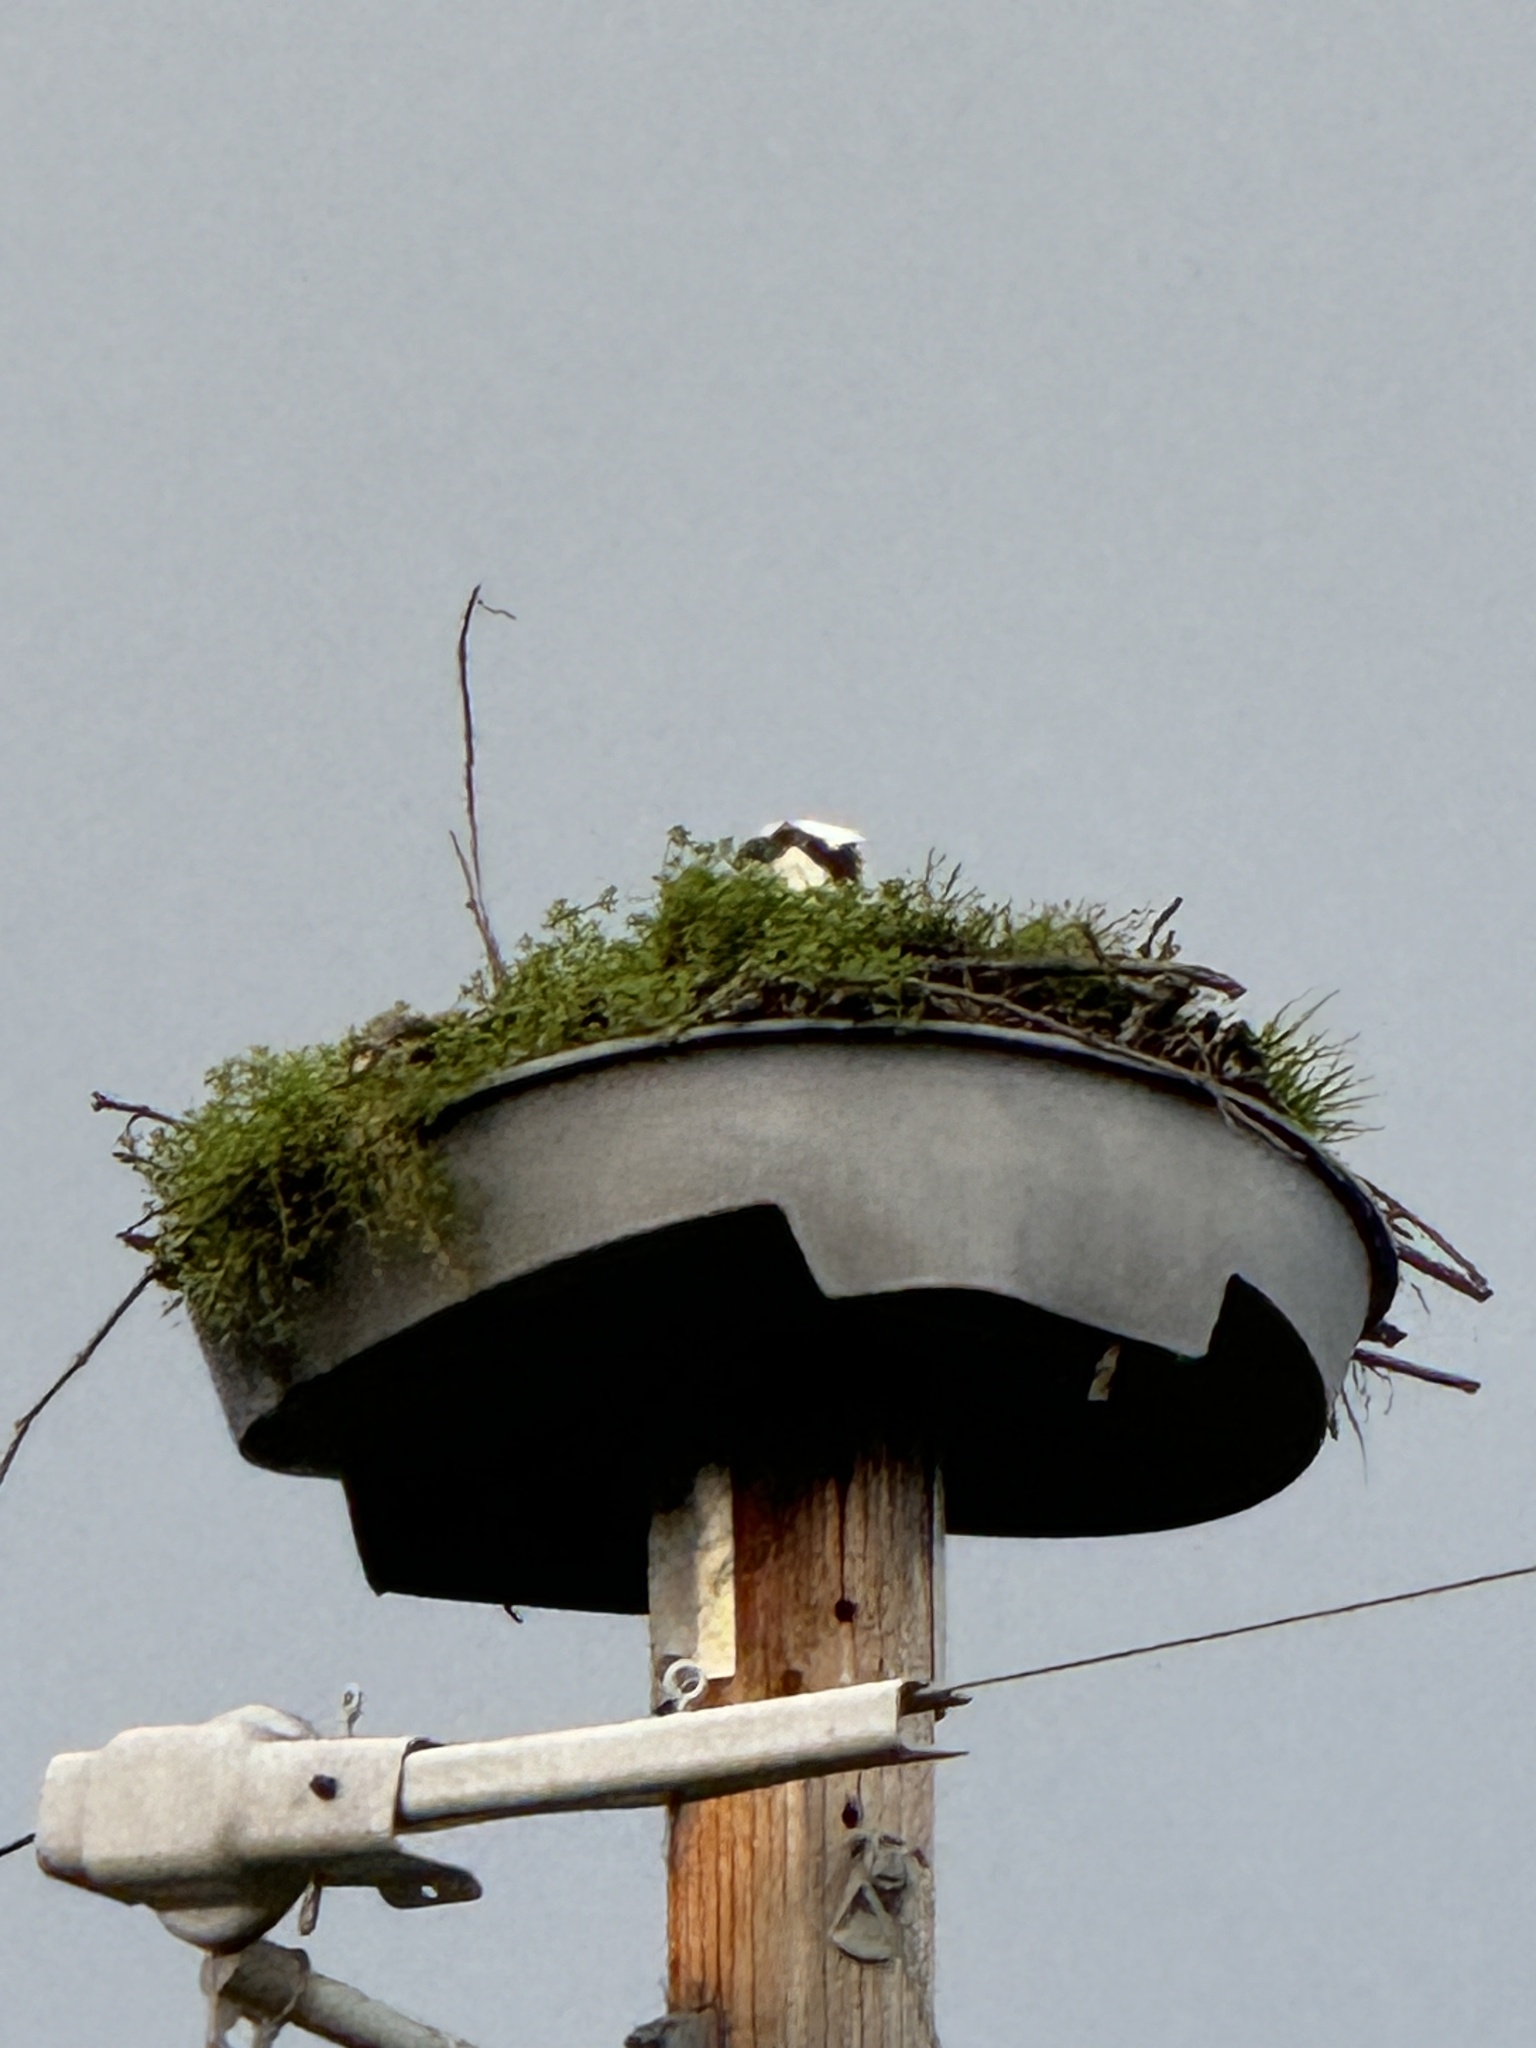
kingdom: Animalia
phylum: Chordata
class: Aves
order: Accipitriformes
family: Pandionidae
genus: Pandion
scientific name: Pandion haliaetus
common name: Osprey
